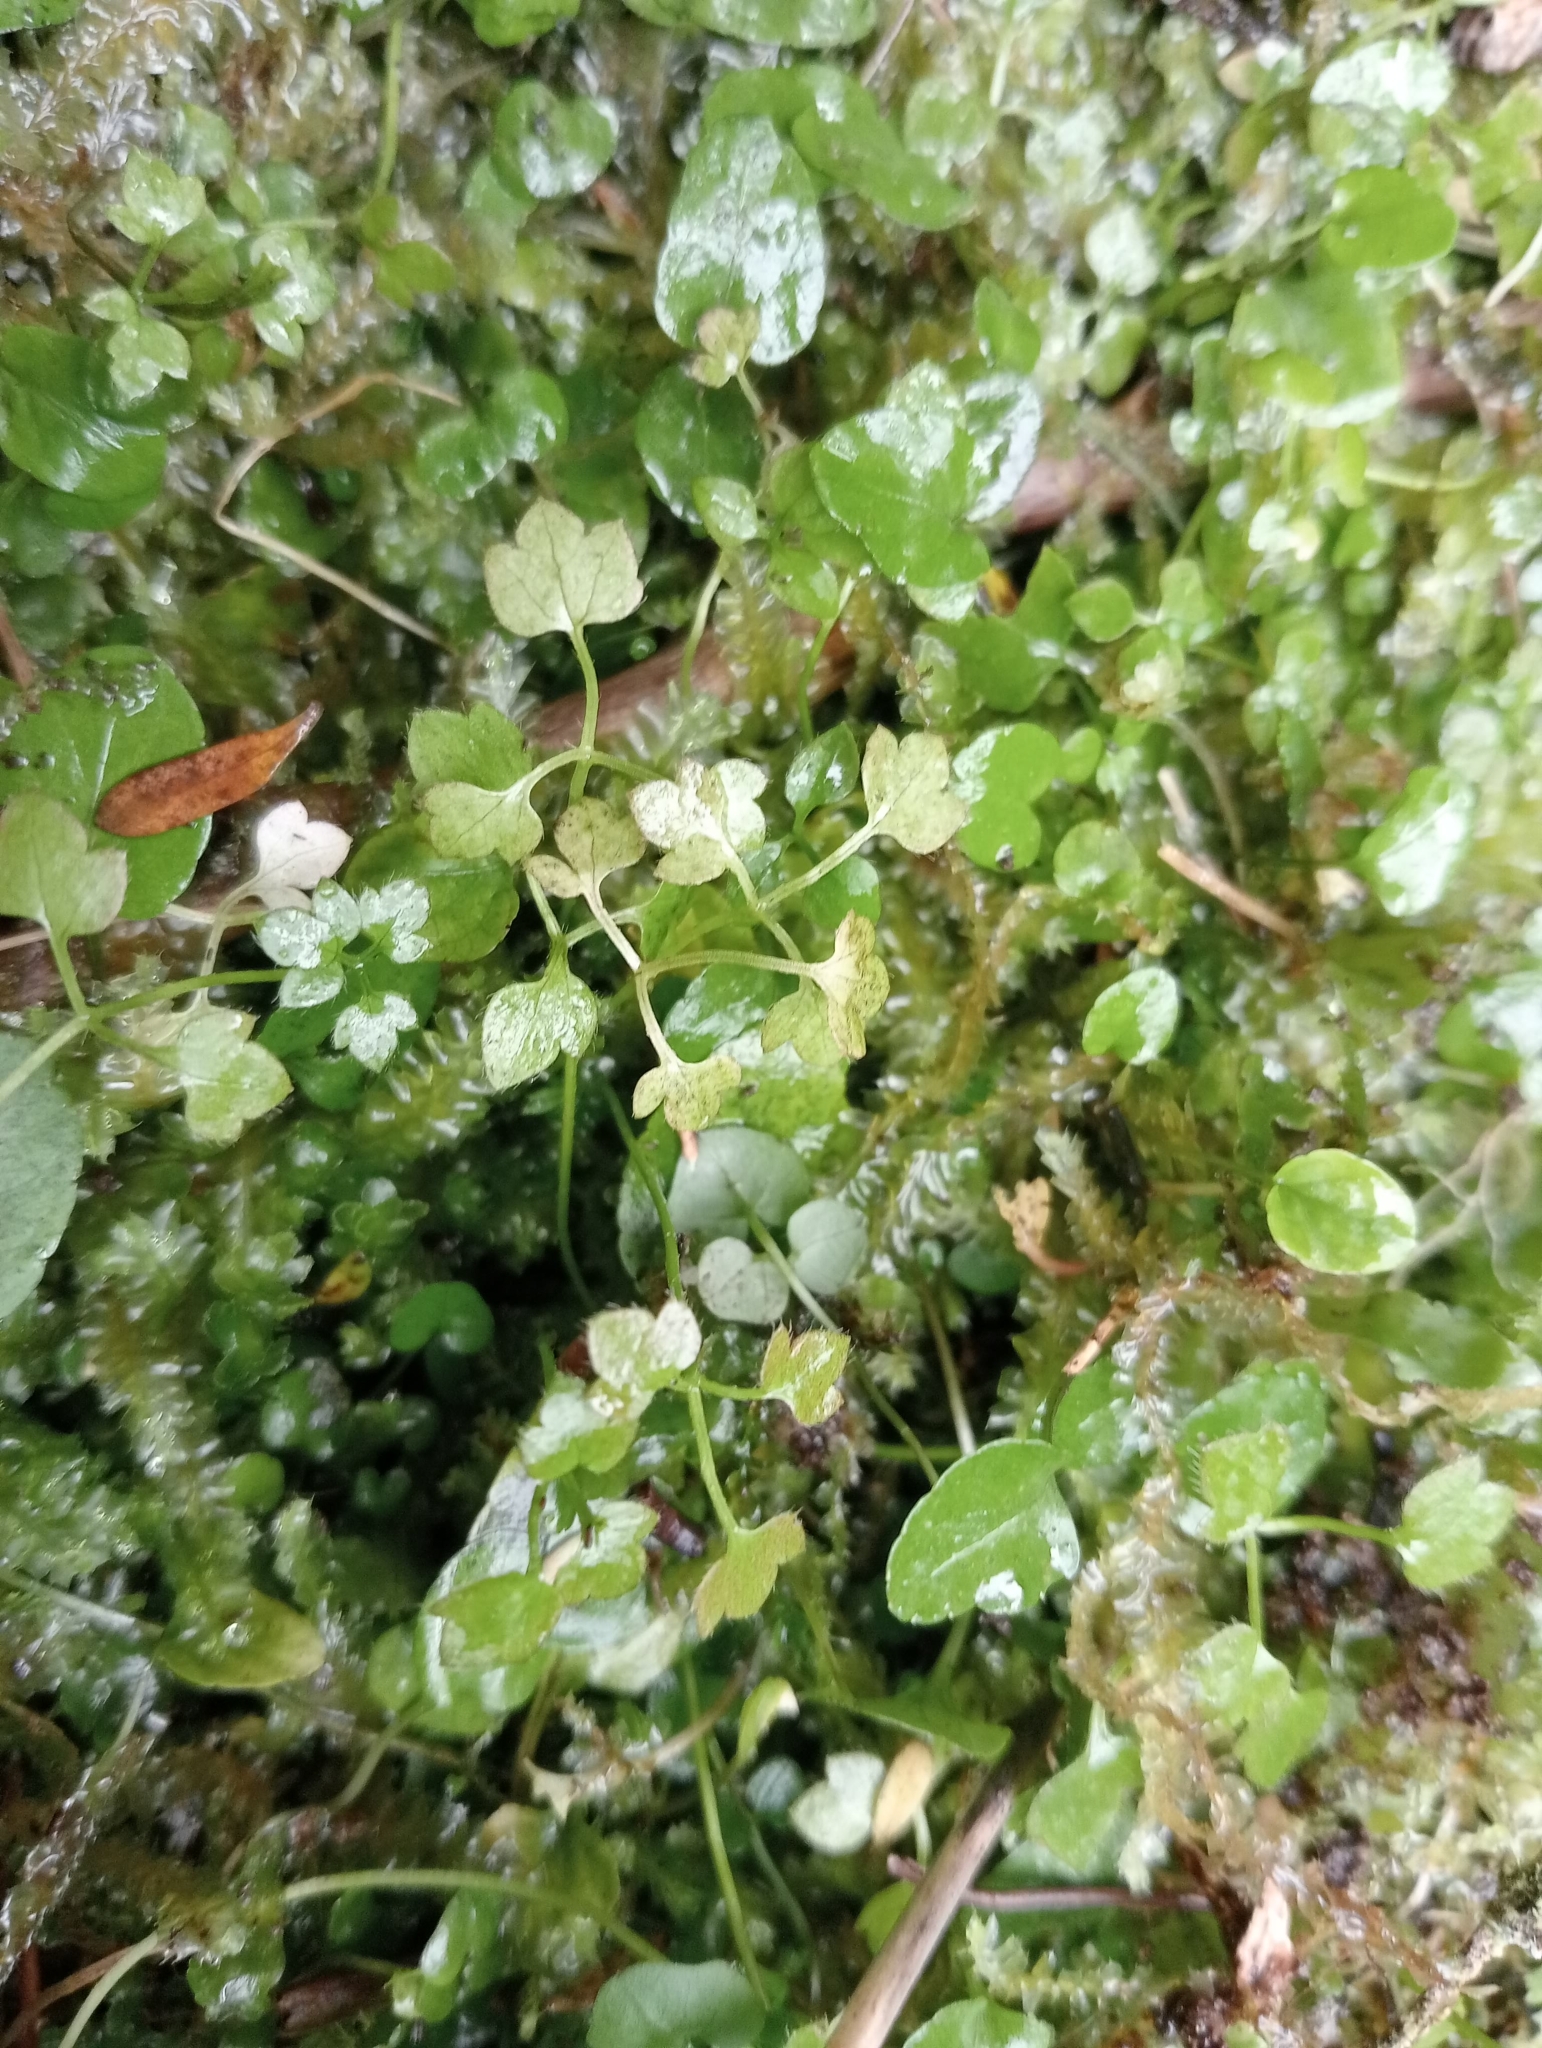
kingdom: Plantae
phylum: Tracheophyta
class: Magnoliopsida
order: Ranunculales
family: Ranunculaceae
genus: Ranunculus
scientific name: Ranunculus ternatifolius
